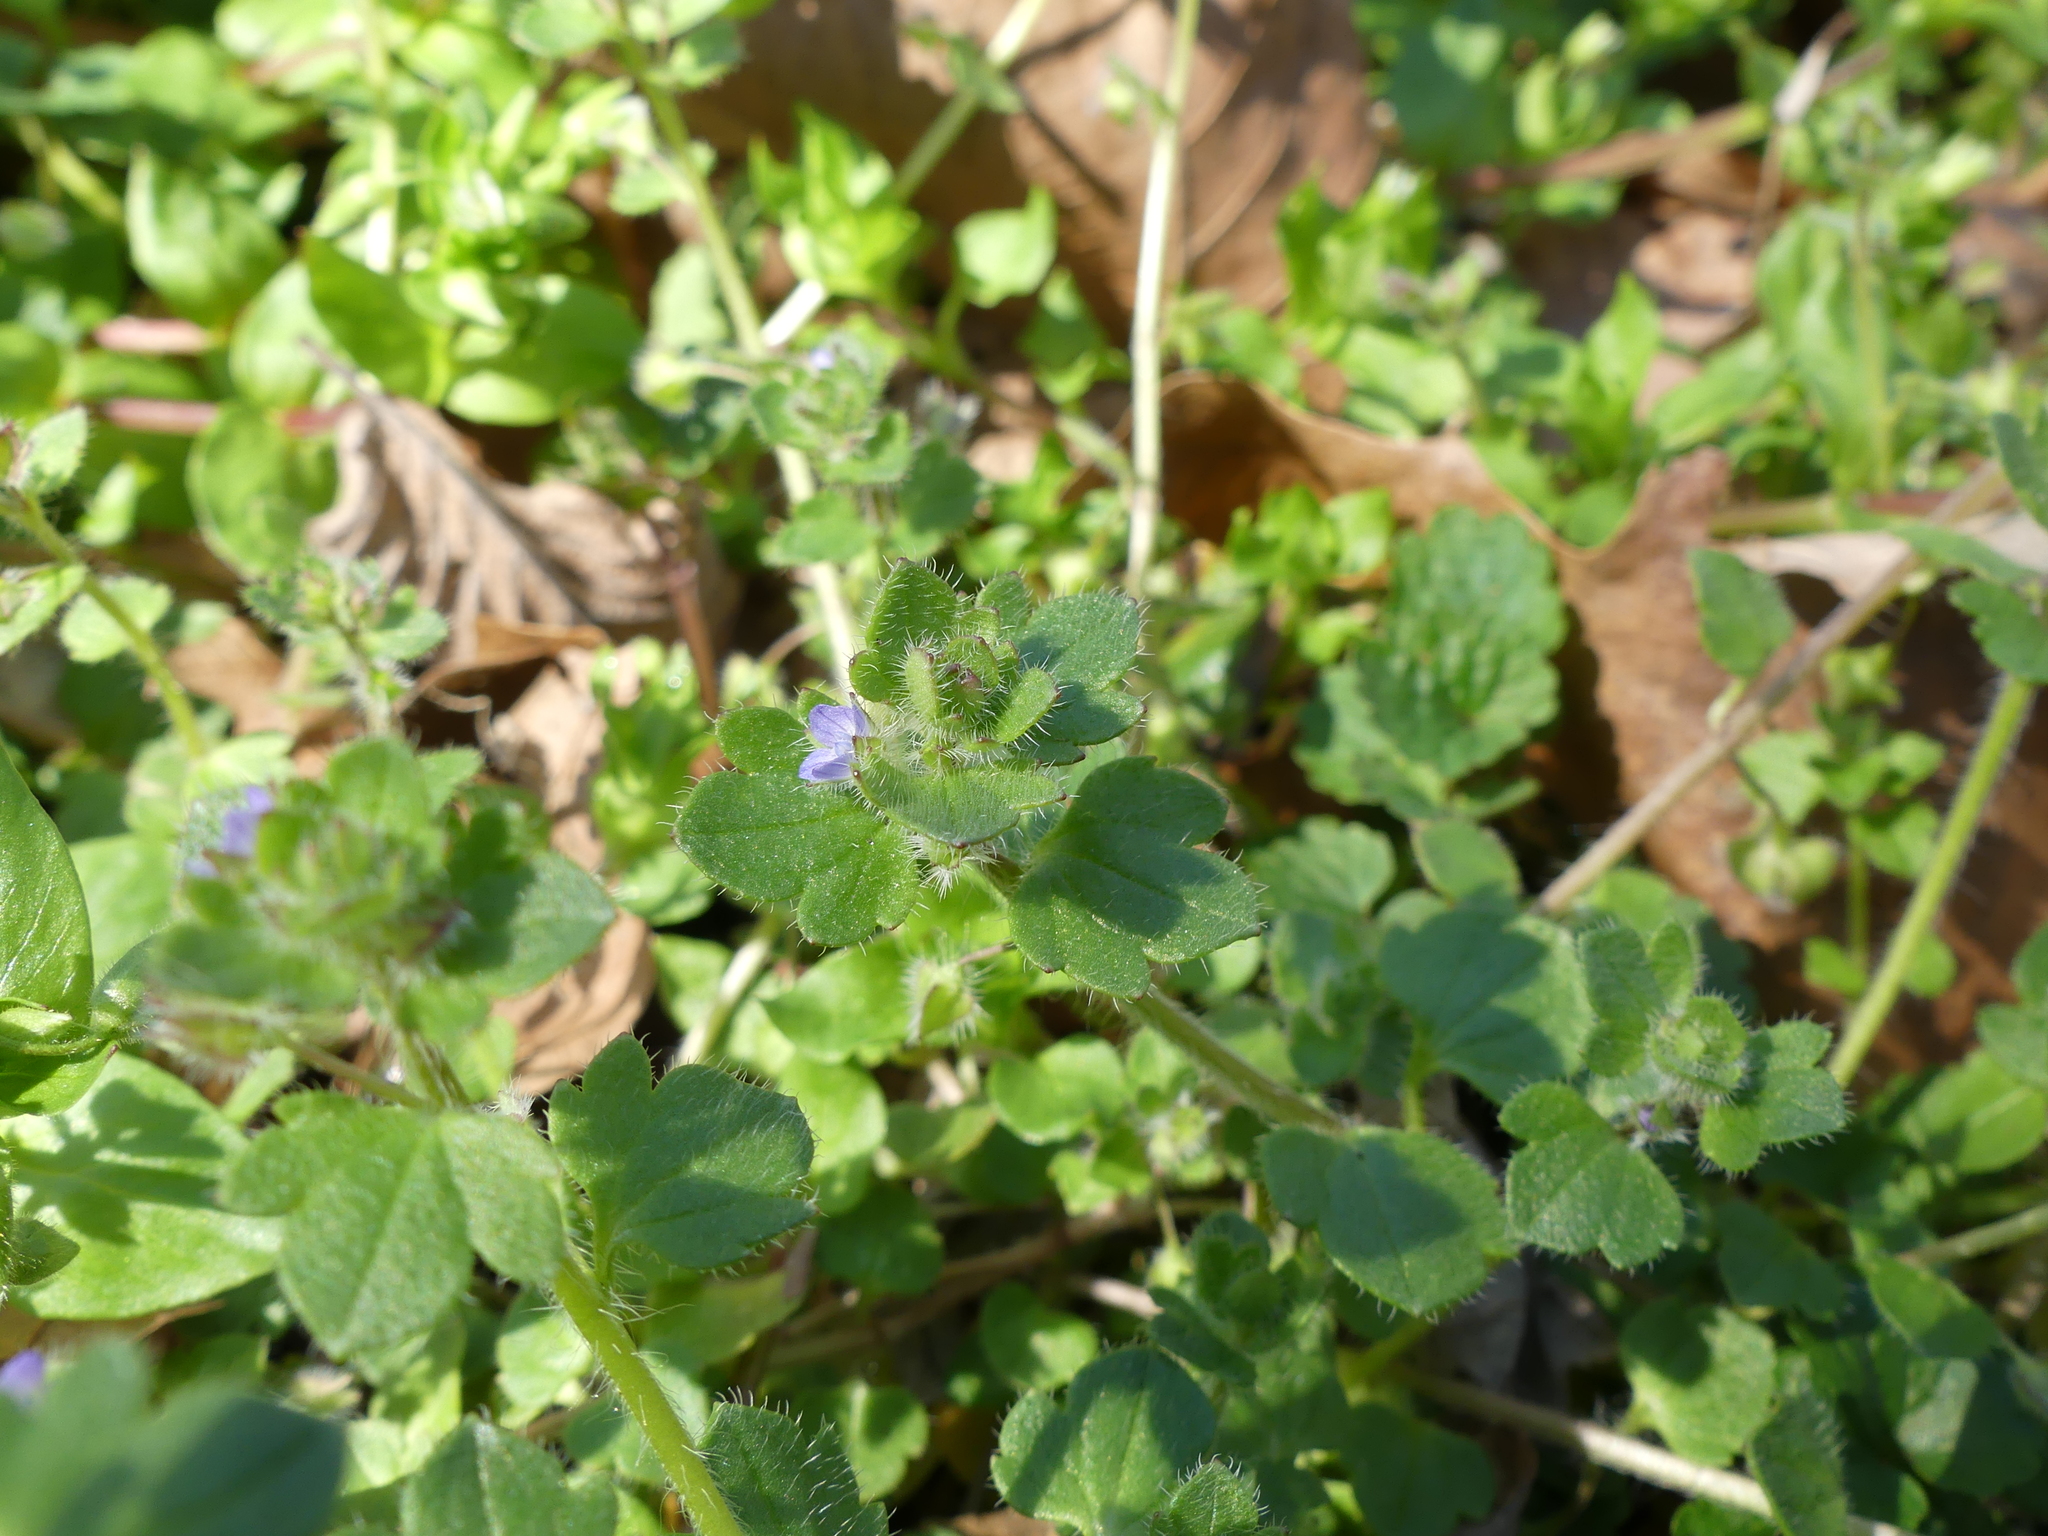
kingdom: Plantae
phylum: Tracheophyta
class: Magnoliopsida
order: Lamiales
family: Plantaginaceae
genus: Veronica
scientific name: Veronica hederifolia
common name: Ivy-leaved speedwell
